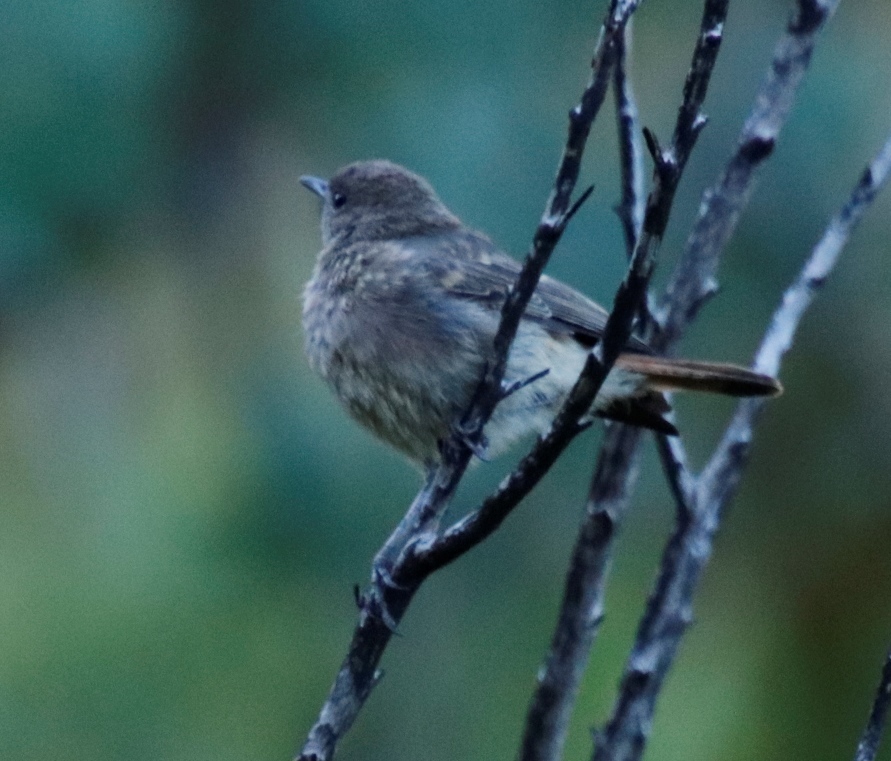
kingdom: Animalia
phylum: Chordata
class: Aves
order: Passeriformes
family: Muscicapidae
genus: Oenanthe
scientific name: Oenanthe familiaris
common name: Familiar chat
